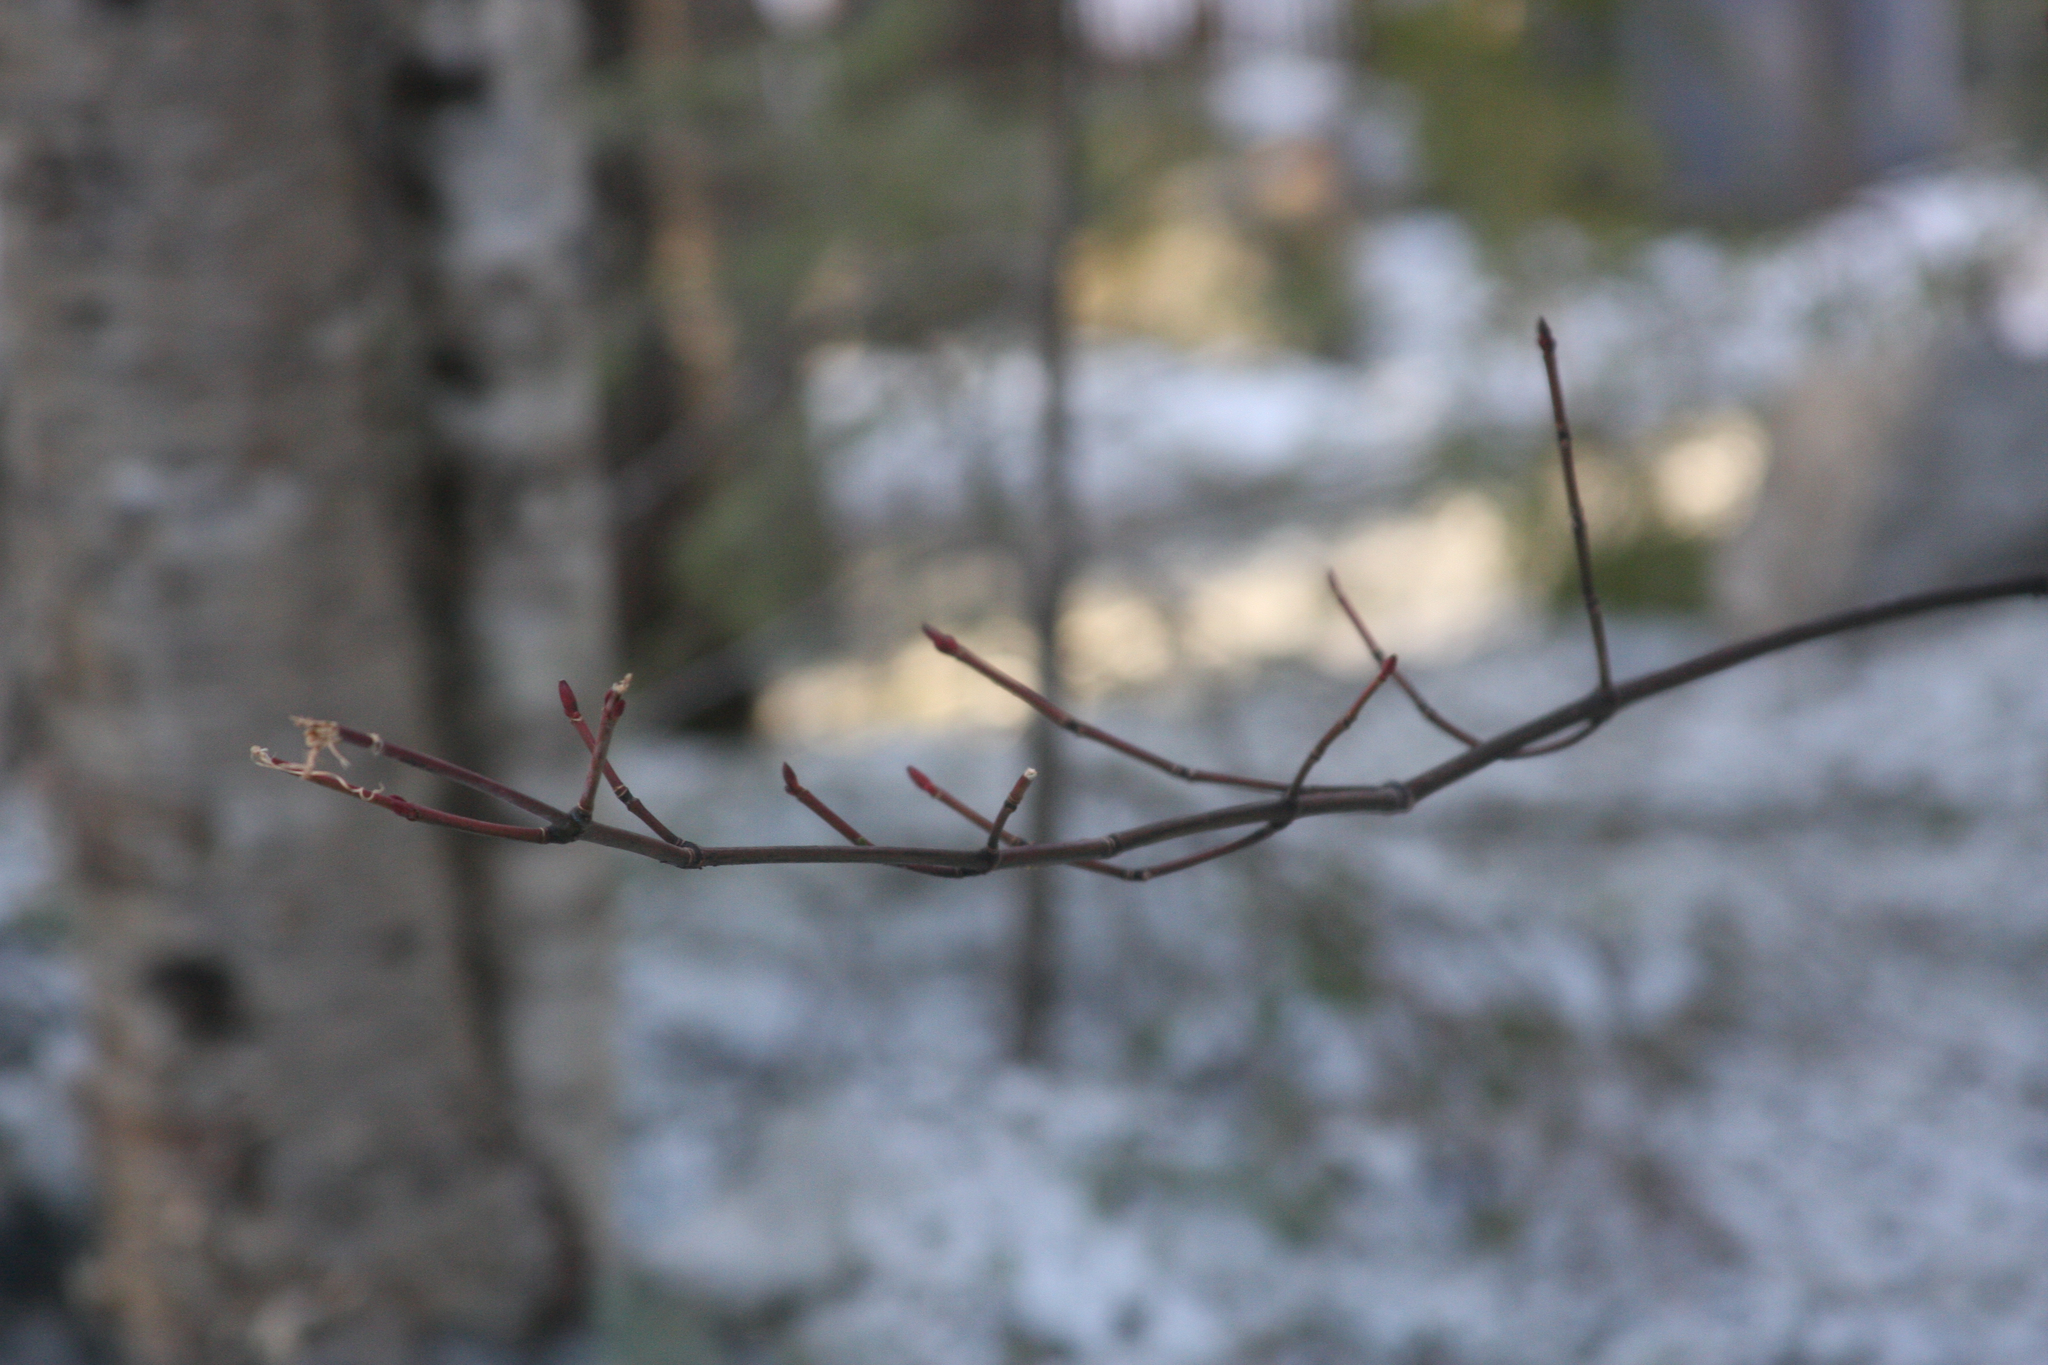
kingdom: Plantae
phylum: Tracheophyta
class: Magnoliopsida
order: Sapindales
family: Sapindaceae
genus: Acer
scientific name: Acer pensylvanicum
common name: Moosewood
